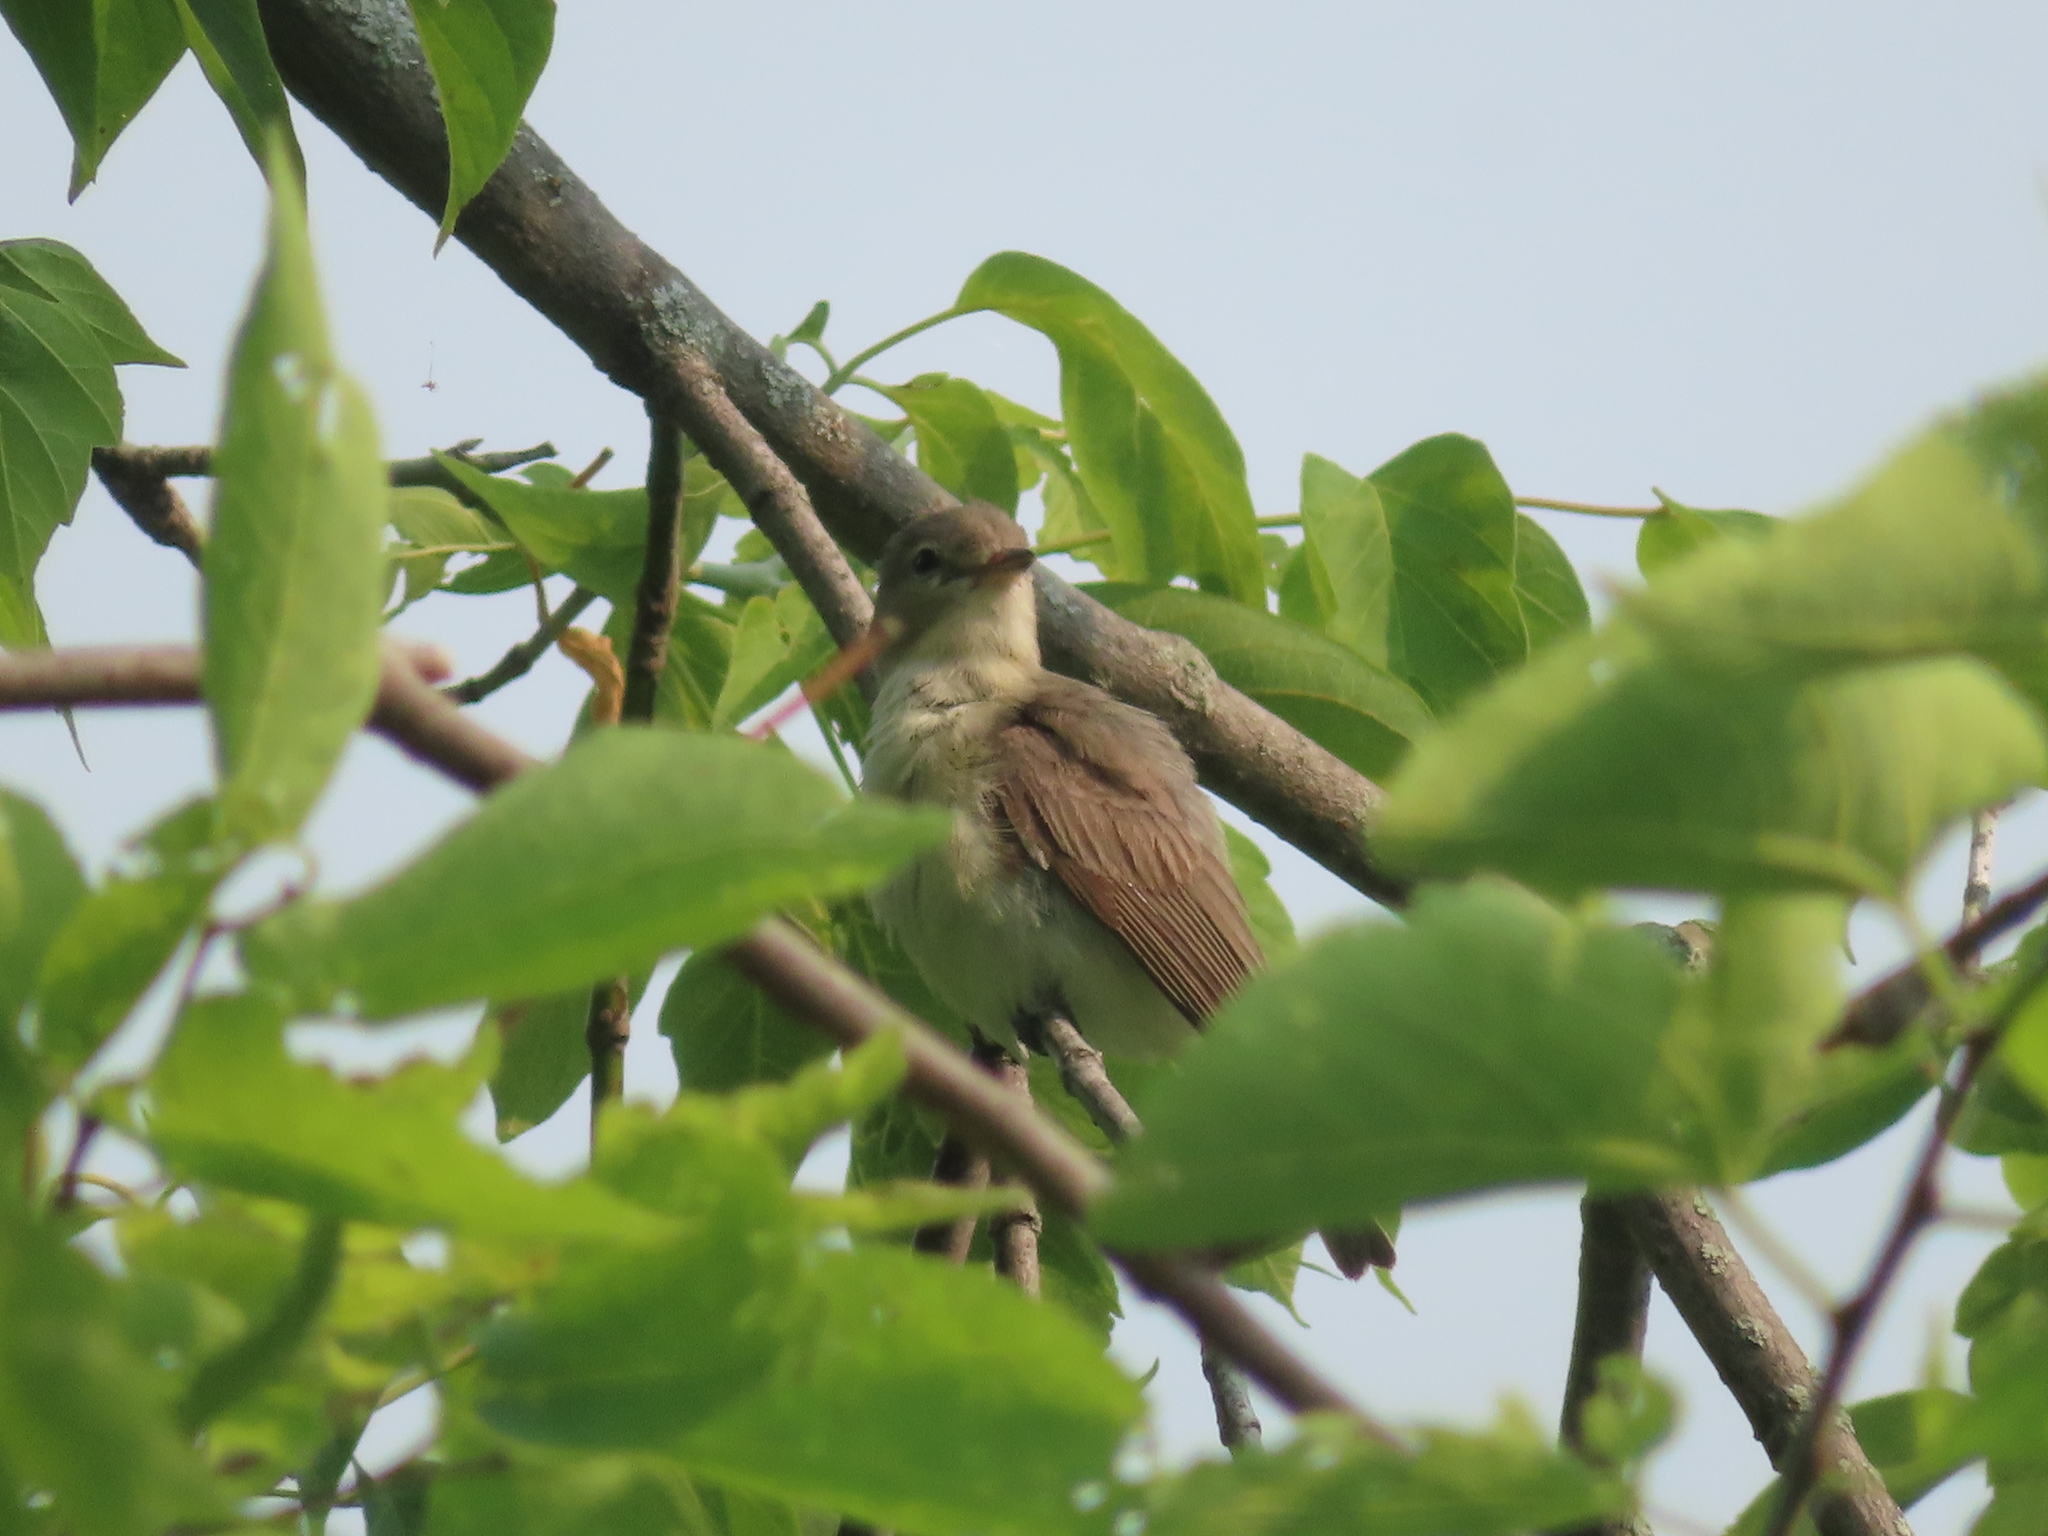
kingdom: Animalia
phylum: Chordata
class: Aves
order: Passeriformes
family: Vireonidae
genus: Vireo
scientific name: Vireo gilvus
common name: Warbling vireo
